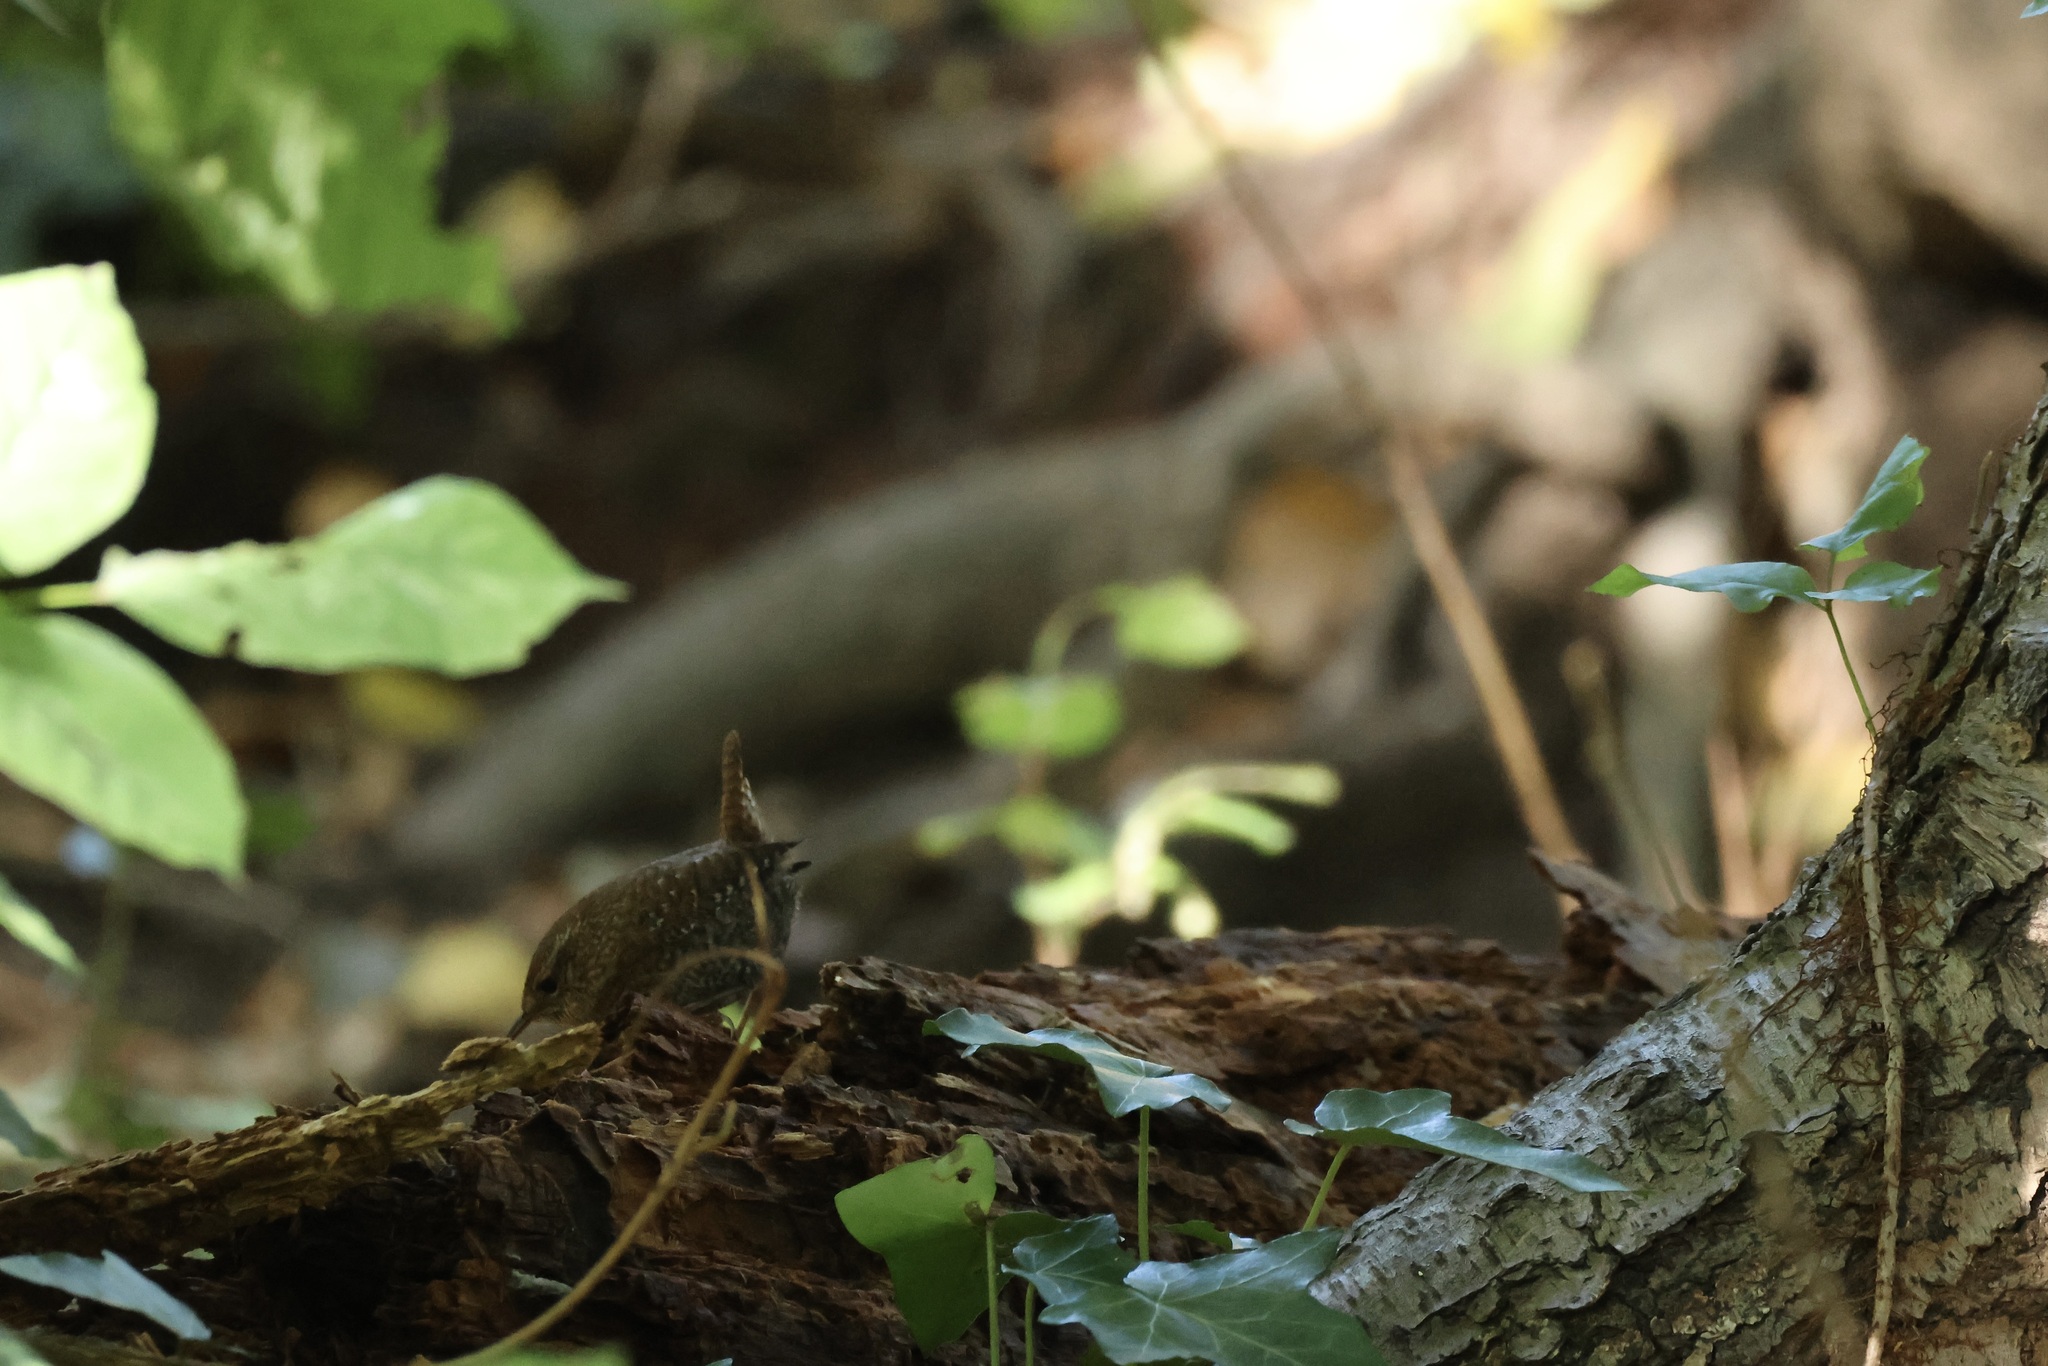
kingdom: Animalia
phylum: Chordata
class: Aves
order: Passeriformes
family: Troglodytidae
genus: Troglodytes
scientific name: Troglodytes hiemalis
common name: Winter wren
